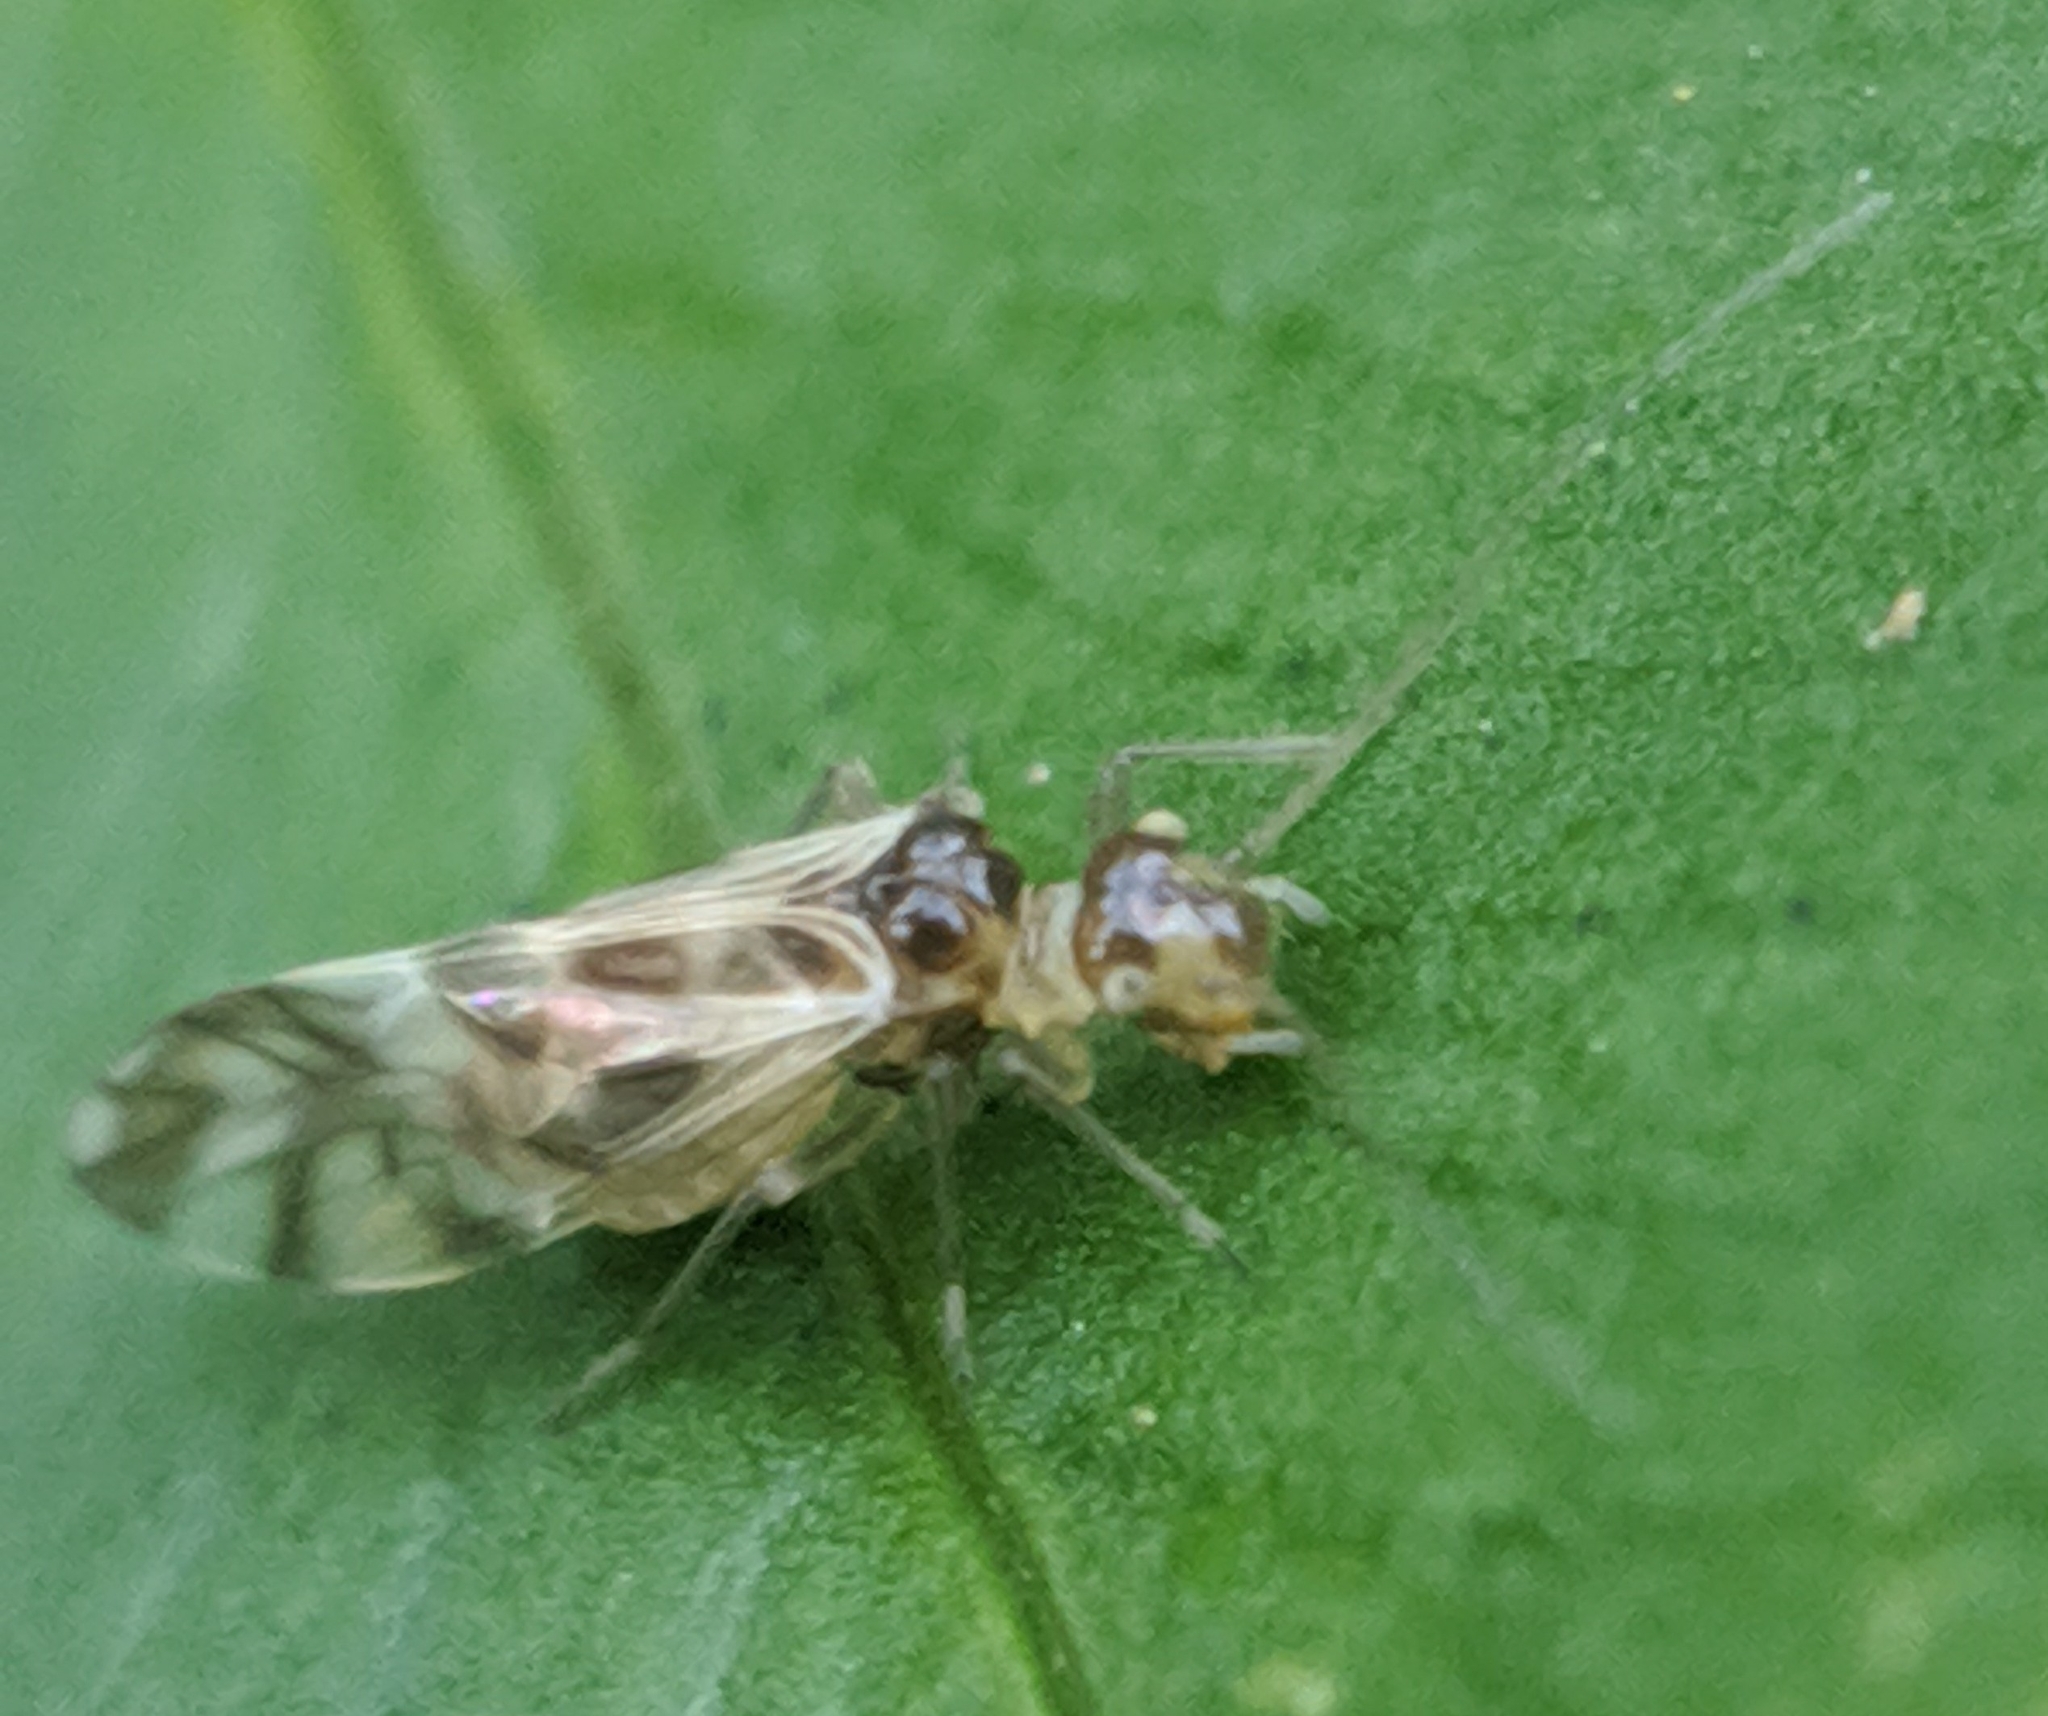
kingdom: Animalia
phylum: Arthropoda
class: Insecta
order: Psocodea
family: Stenopsocidae
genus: Graphopsocus
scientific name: Graphopsocus cruciatus
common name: Lizard bark louse
